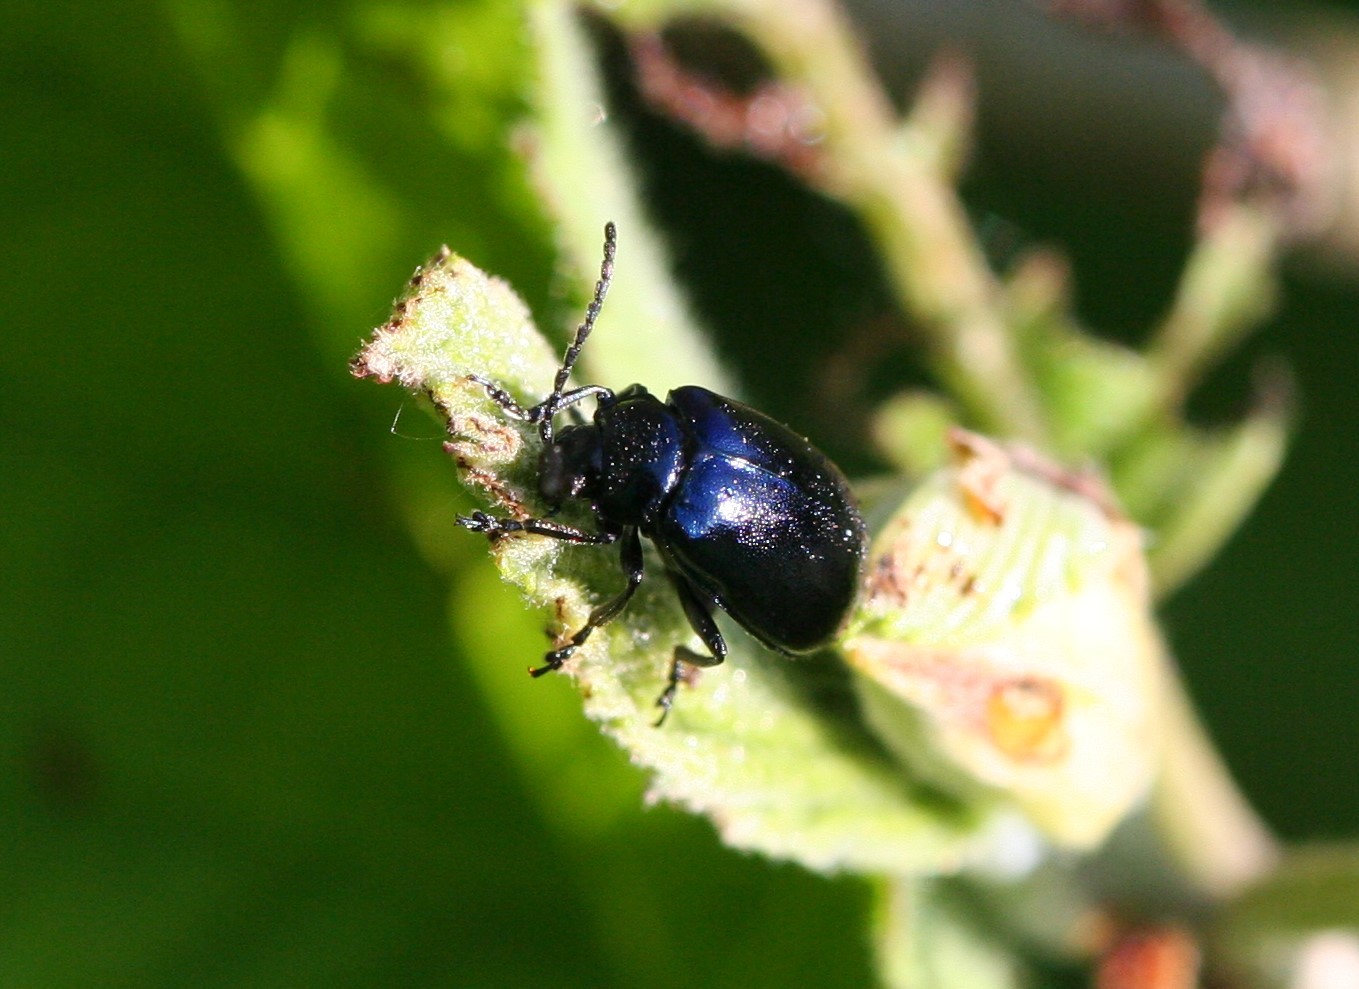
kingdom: Animalia
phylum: Arthropoda
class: Insecta
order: Coleoptera
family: Chrysomelidae
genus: Agelastica
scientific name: Agelastica alni
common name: Alder leaf beetle
